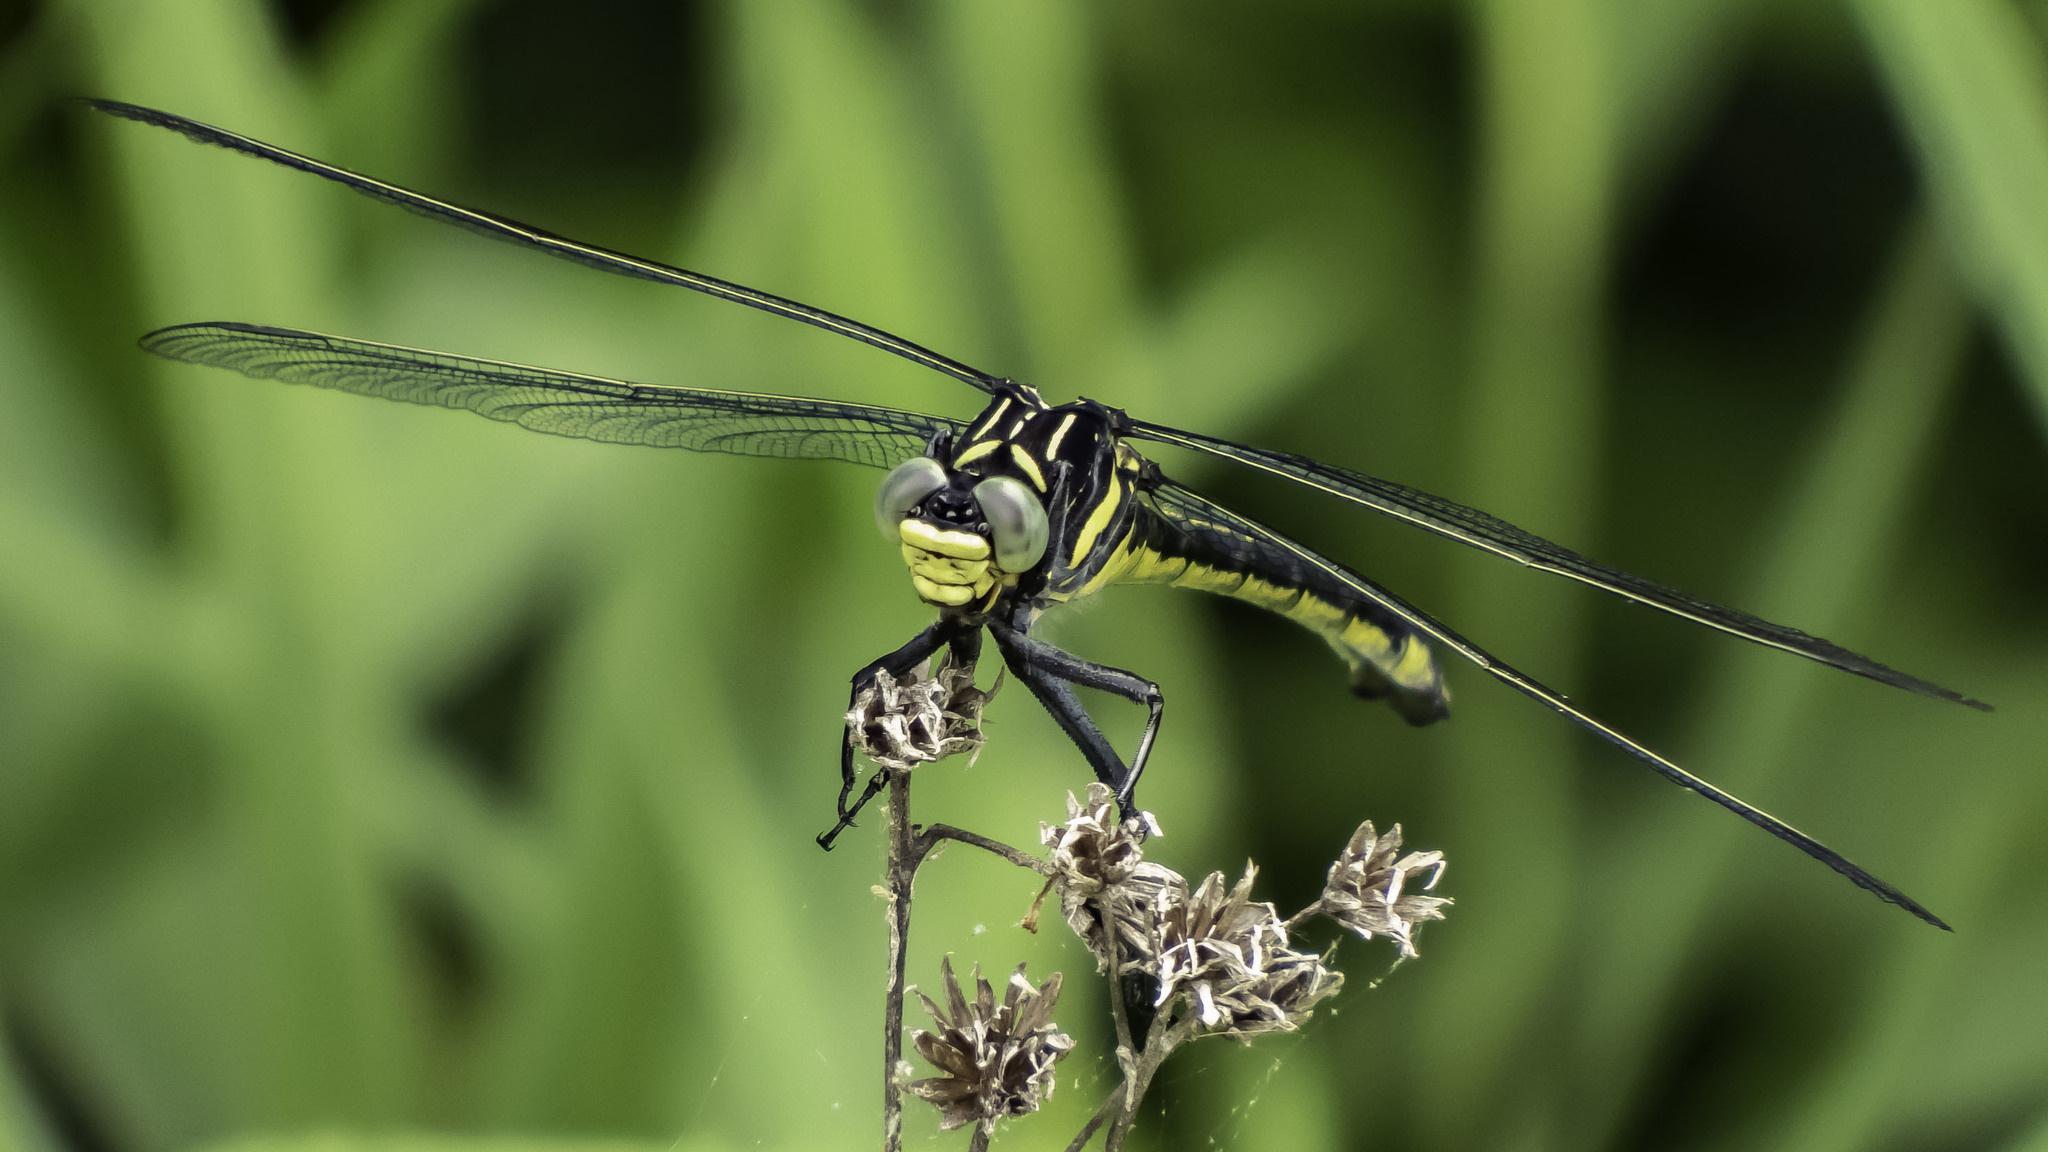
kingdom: Animalia
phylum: Arthropoda
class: Insecta
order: Odonata
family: Gomphidae
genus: Hagenius
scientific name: Hagenius brevistylus
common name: Dragonhunter
